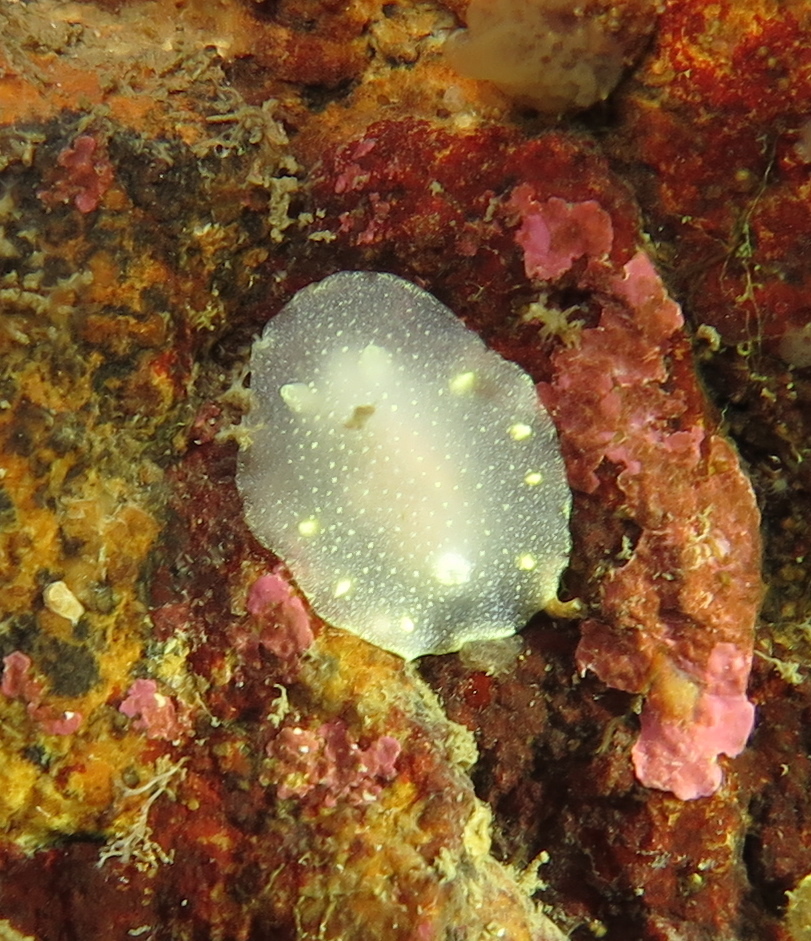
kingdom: Animalia
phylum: Mollusca
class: Gastropoda
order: Nudibranchia
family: Cadlinidae
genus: Cadlina
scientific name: Cadlina laevis
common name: White atlantic cadlina
